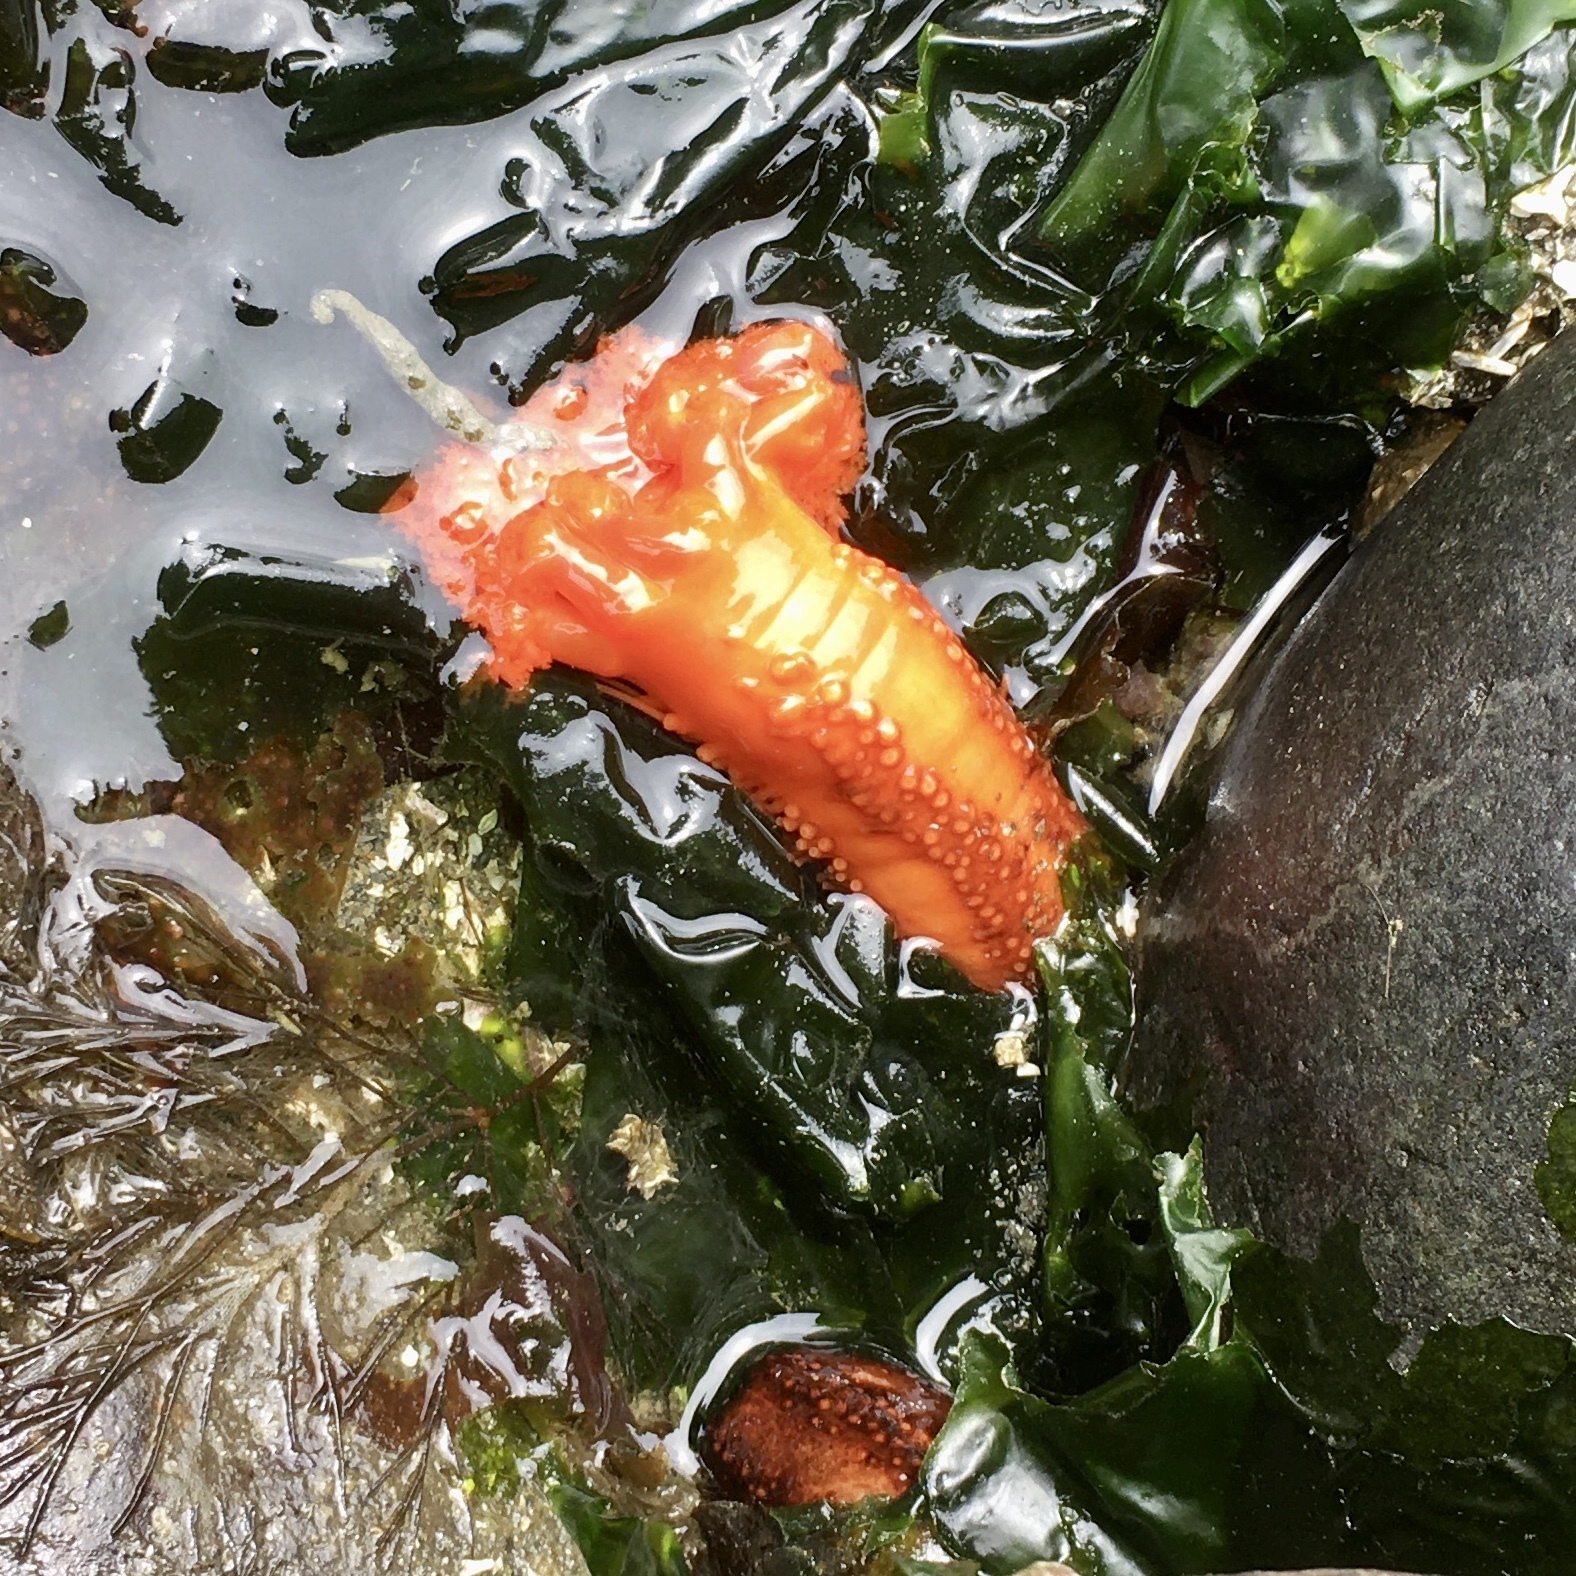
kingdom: Animalia
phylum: Echinodermata
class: Holothuroidea
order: Dendrochirotida
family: Cucumariidae
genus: Cucumaria
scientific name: Cucumaria miniata
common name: Orange sea cucumber
